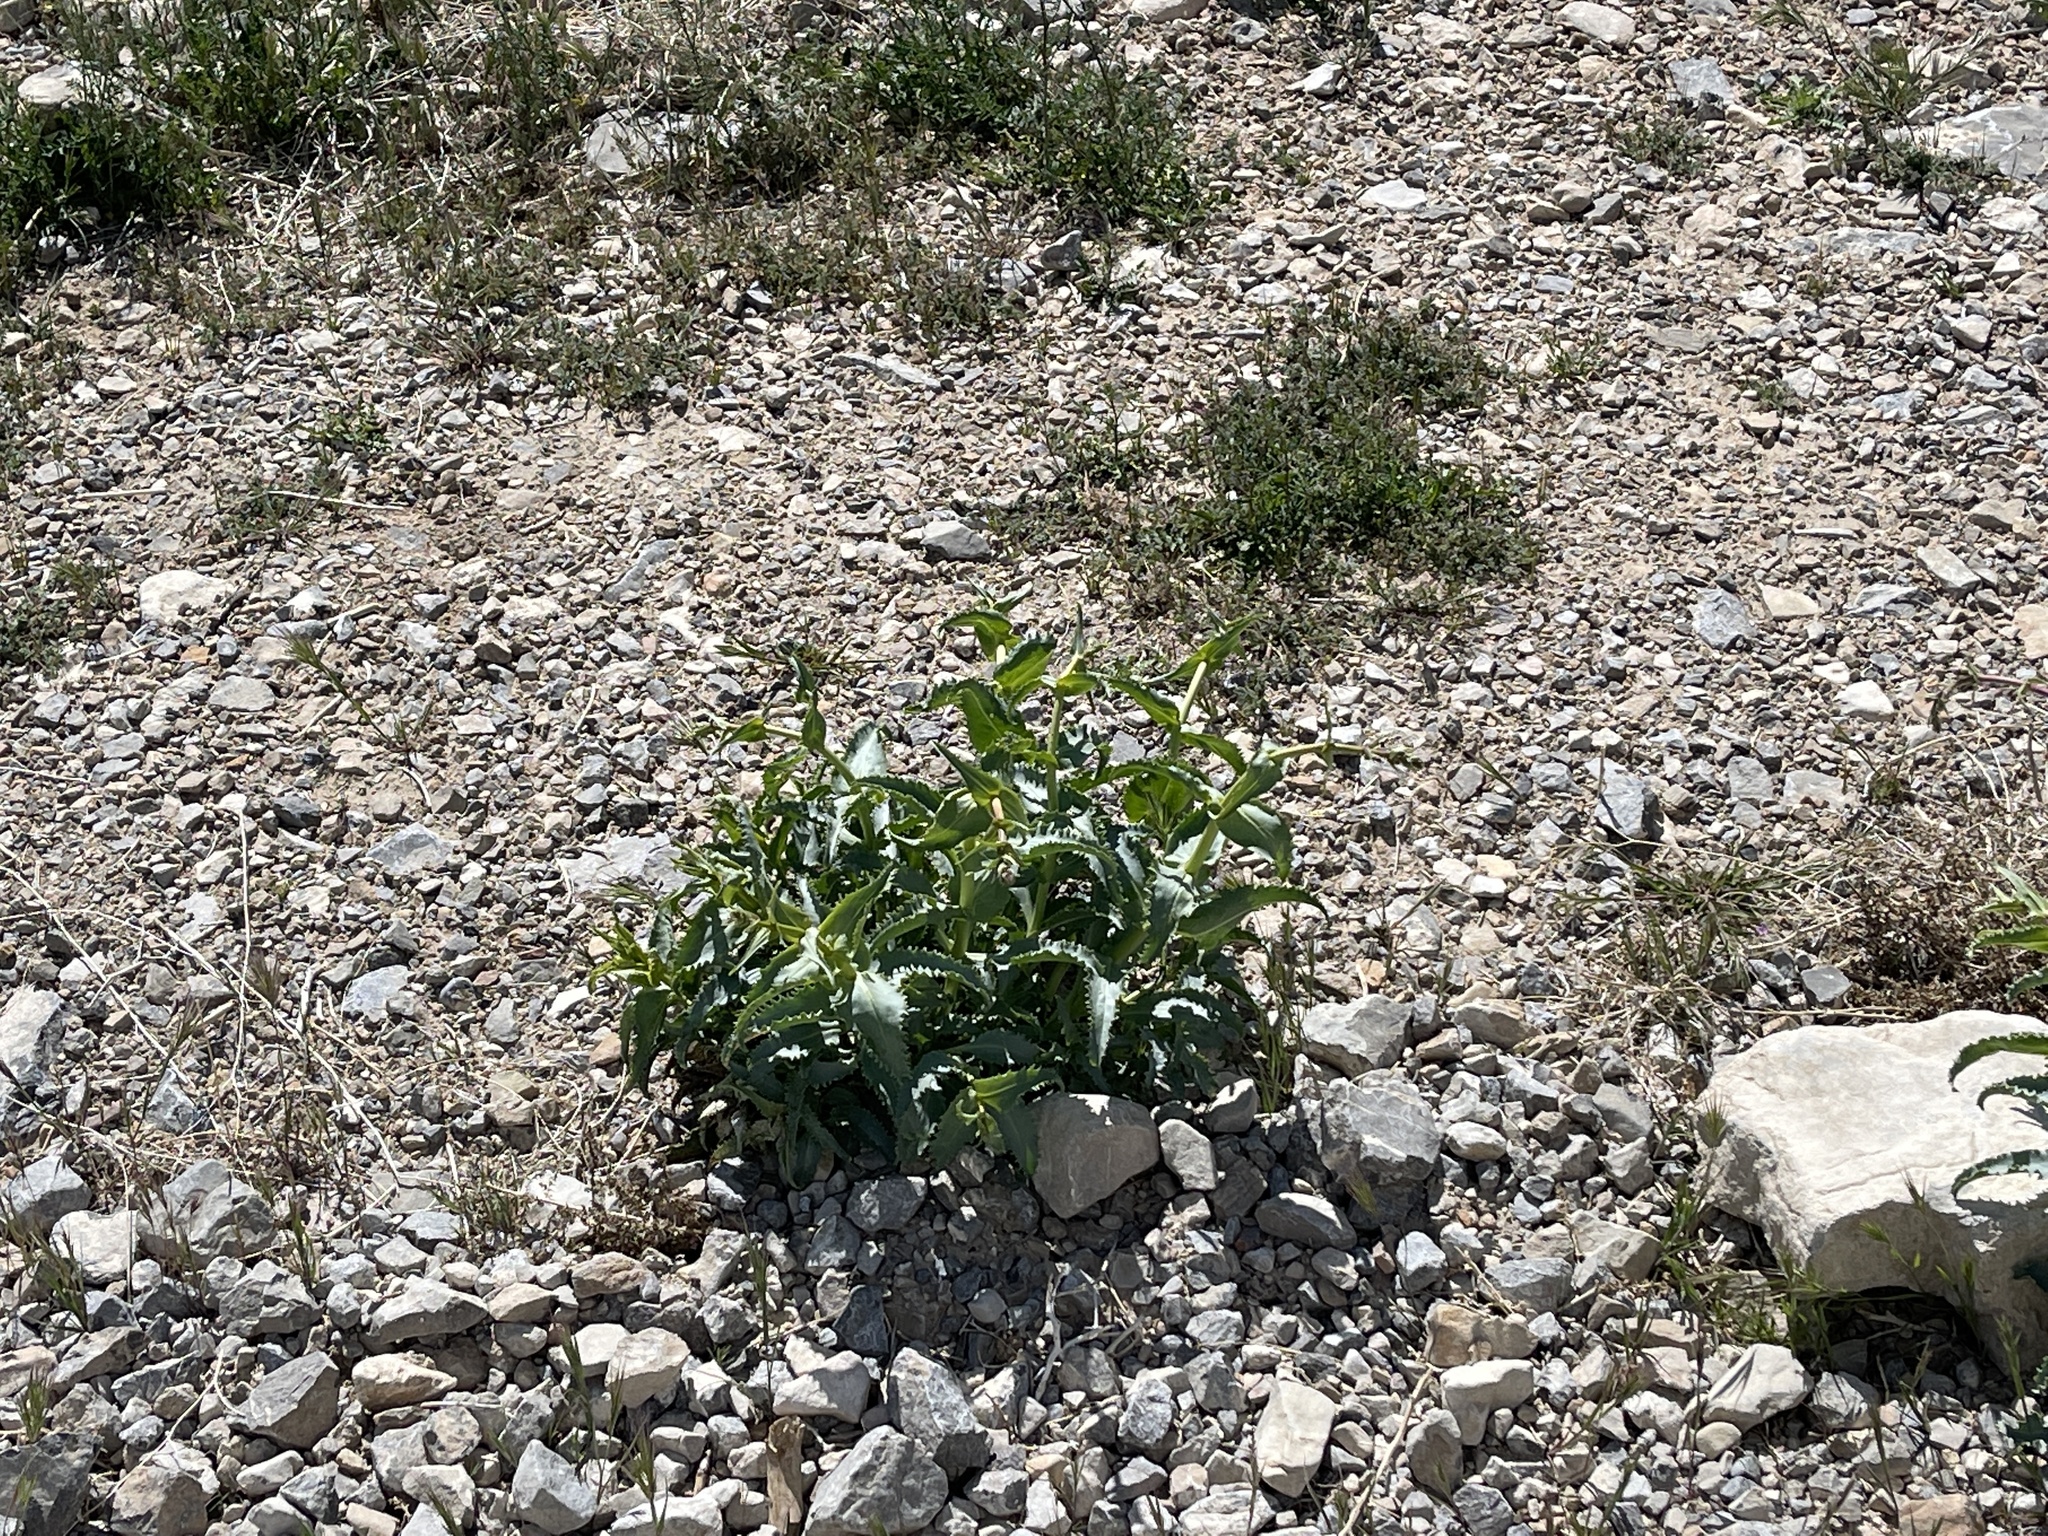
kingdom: Plantae
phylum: Tracheophyta
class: Magnoliopsida
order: Lamiales
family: Plantaginaceae
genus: Penstemon
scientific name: Penstemon palmeri
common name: Palmer penstemon
